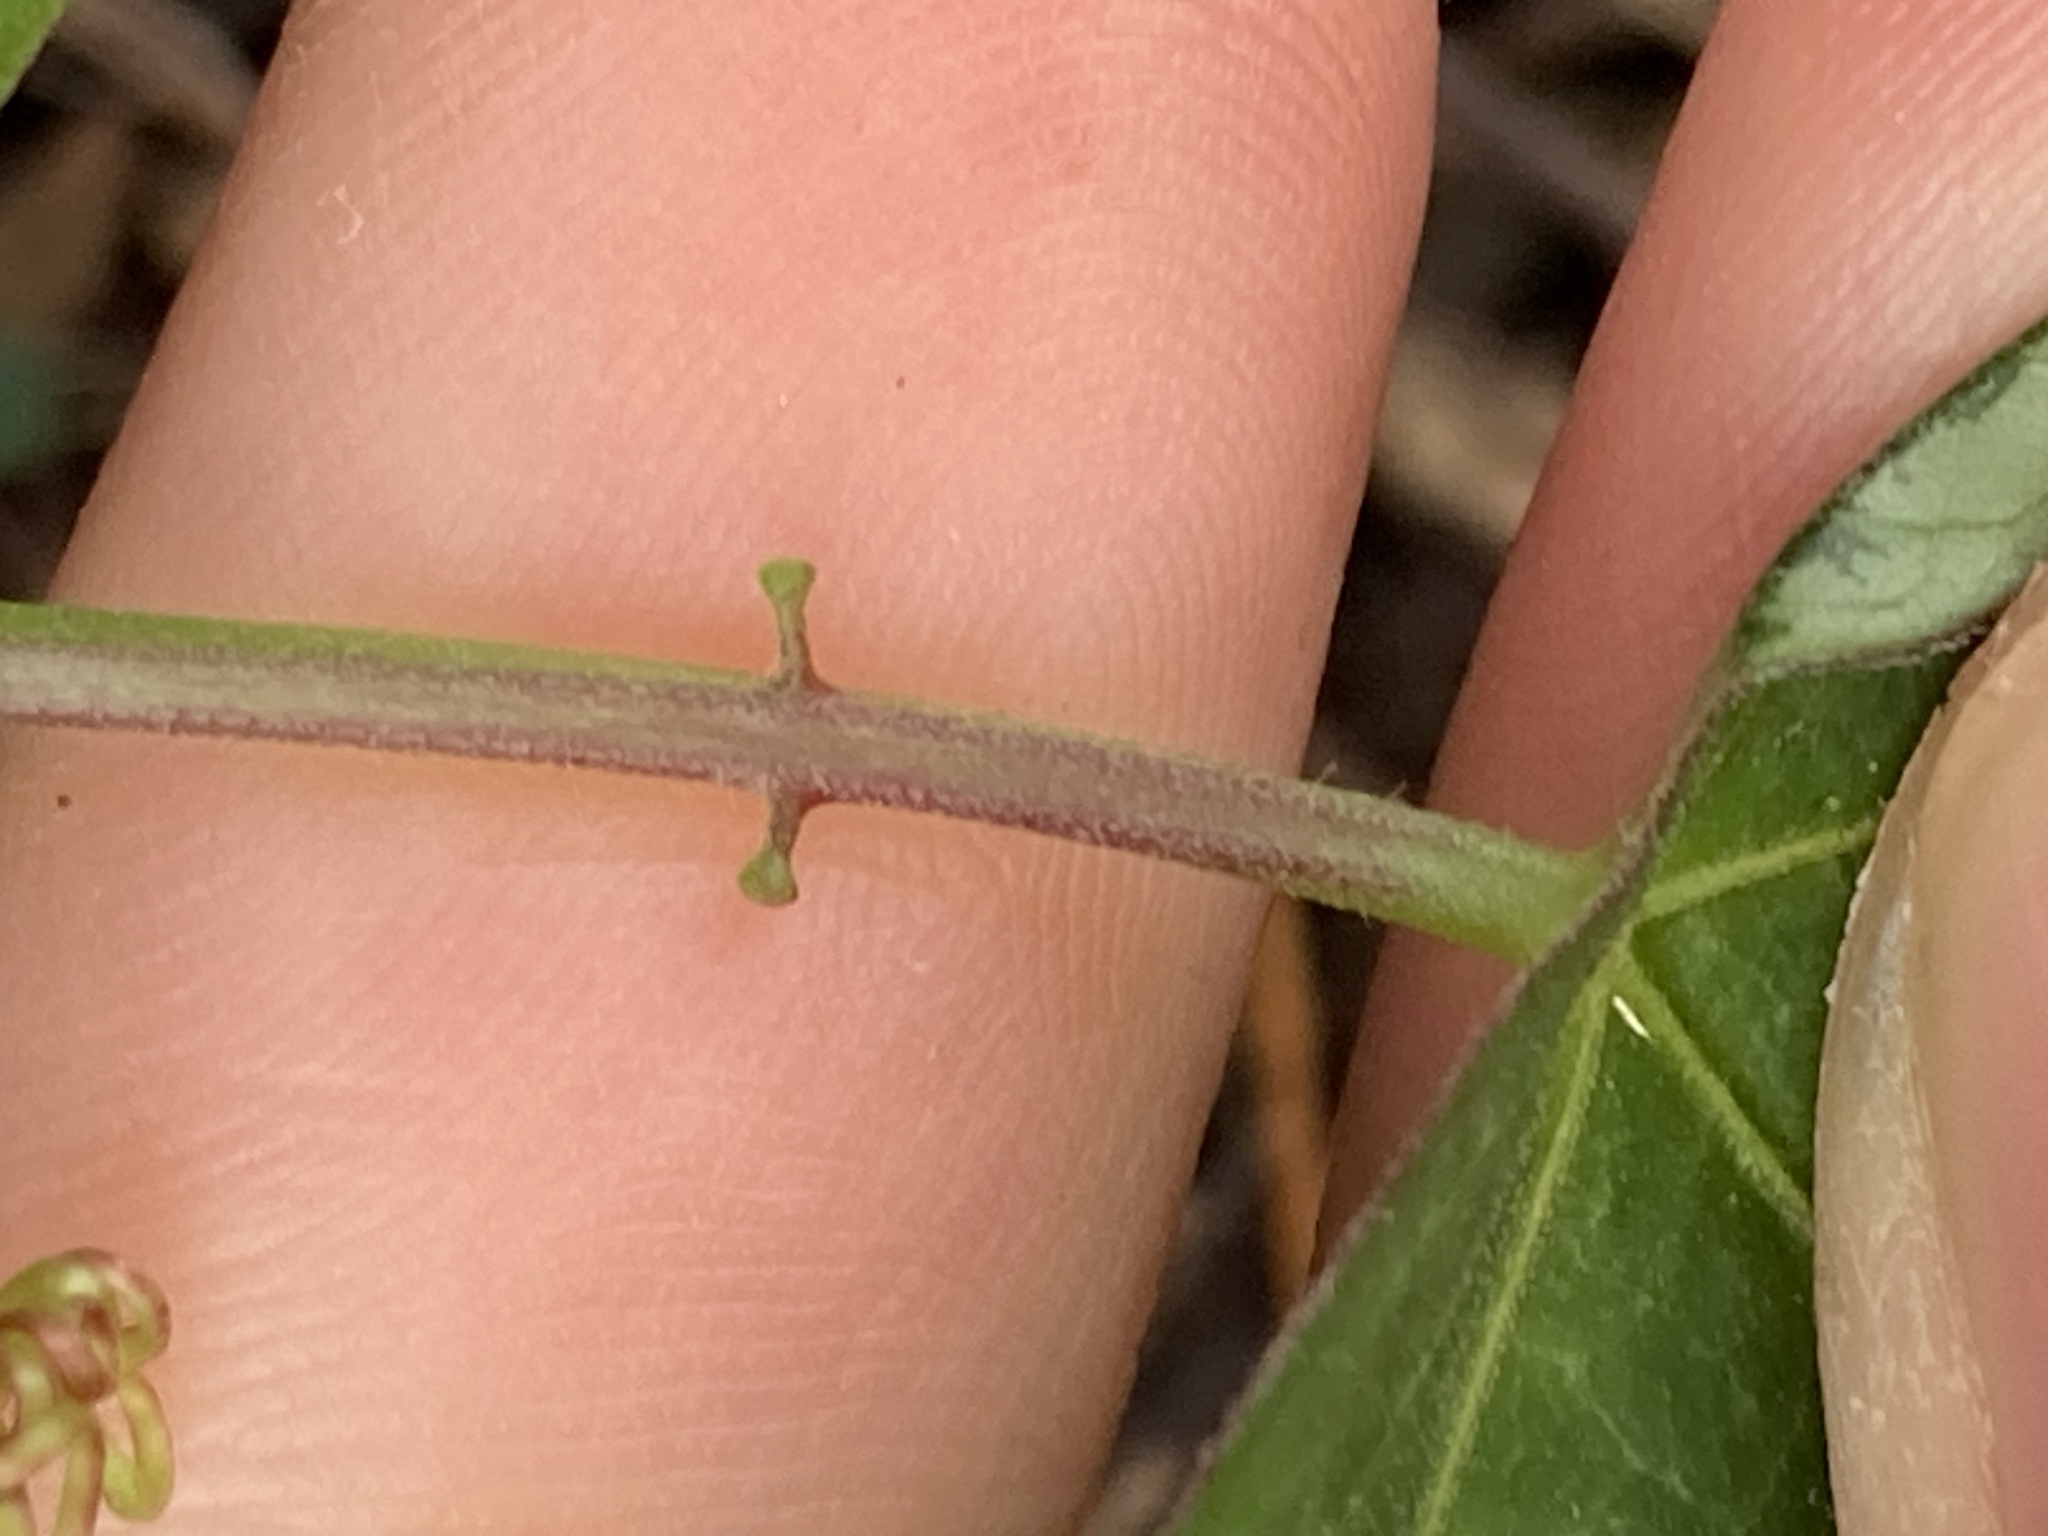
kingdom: Plantae
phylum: Tracheophyta
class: Magnoliopsida
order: Malpighiales
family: Passifloraceae
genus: Passiflora
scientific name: Passiflora suberosa
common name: Wild passionfruit
